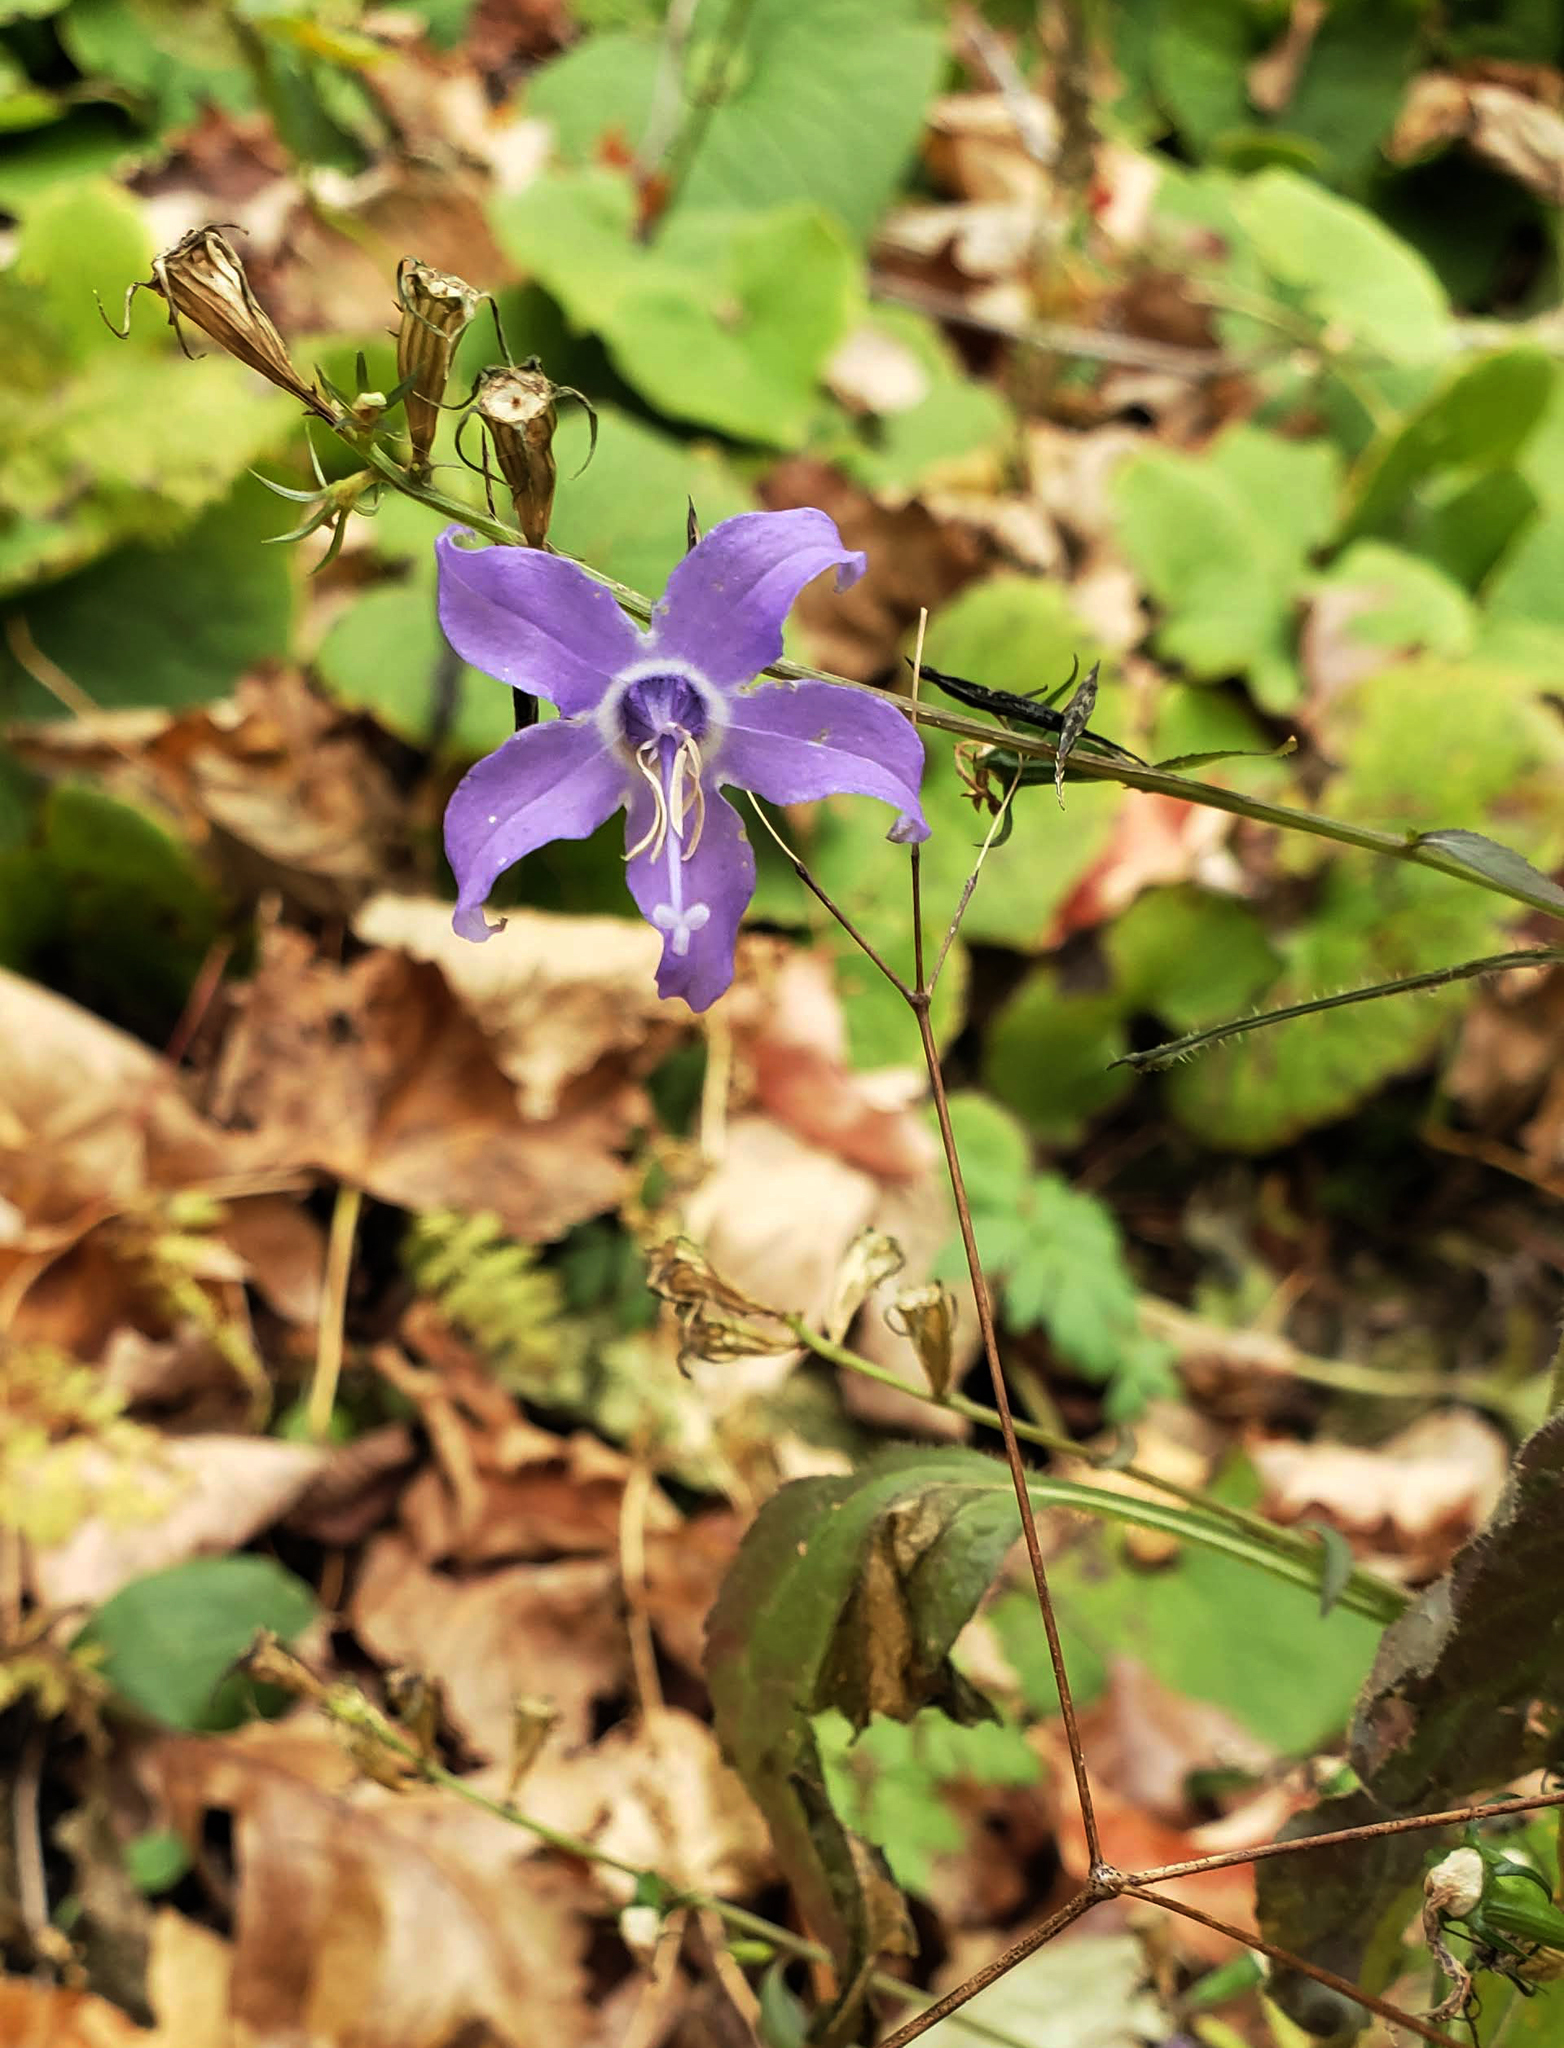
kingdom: Plantae
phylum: Tracheophyta
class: Magnoliopsida
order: Asterales
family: Campanulaceae
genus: Campanulastrum
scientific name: Campanulastrum americanum
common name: American bellflower
